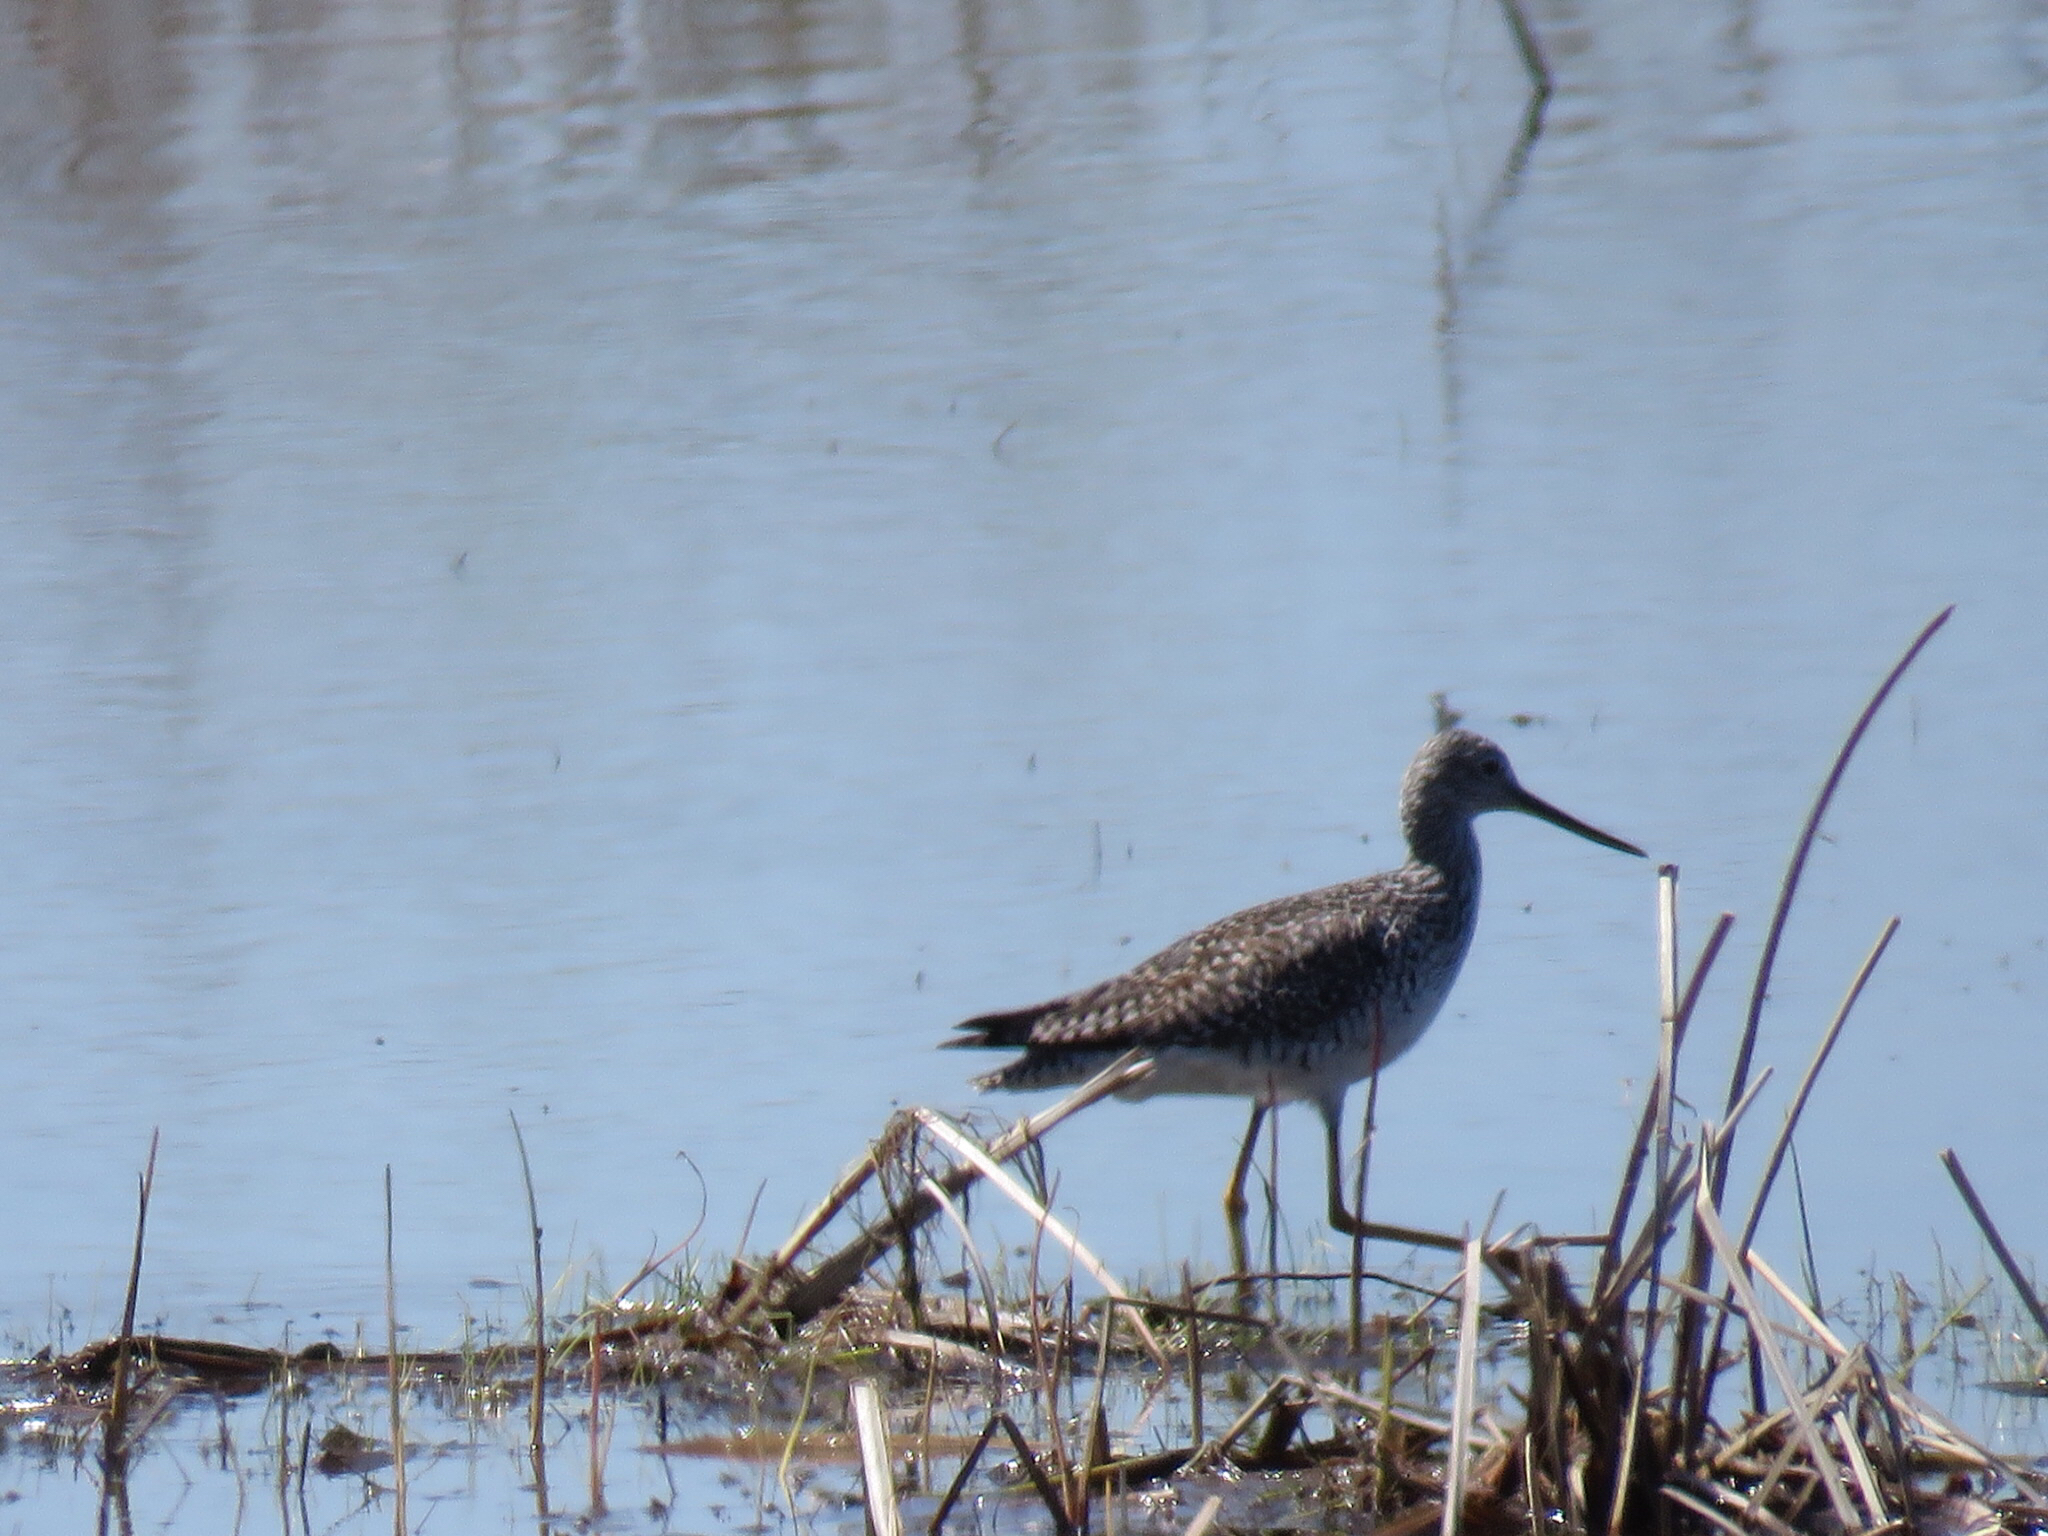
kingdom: Animalia
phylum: Chordata
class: Aves
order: Charadriiformes
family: Scolopacidae
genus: Tringa
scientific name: Tringa melanoleuca
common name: Greater yellowlegs
